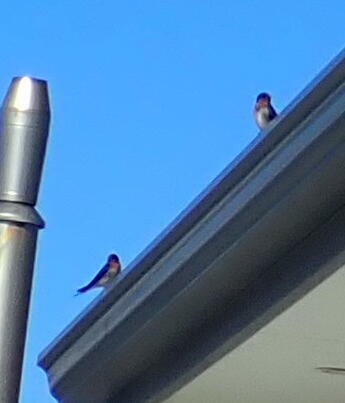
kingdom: Animalia
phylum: Chordata
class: Aves
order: Passeriformes
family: Hirundinidae
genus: Hirundo
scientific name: Hirundo neoxena
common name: Welcome swallow
